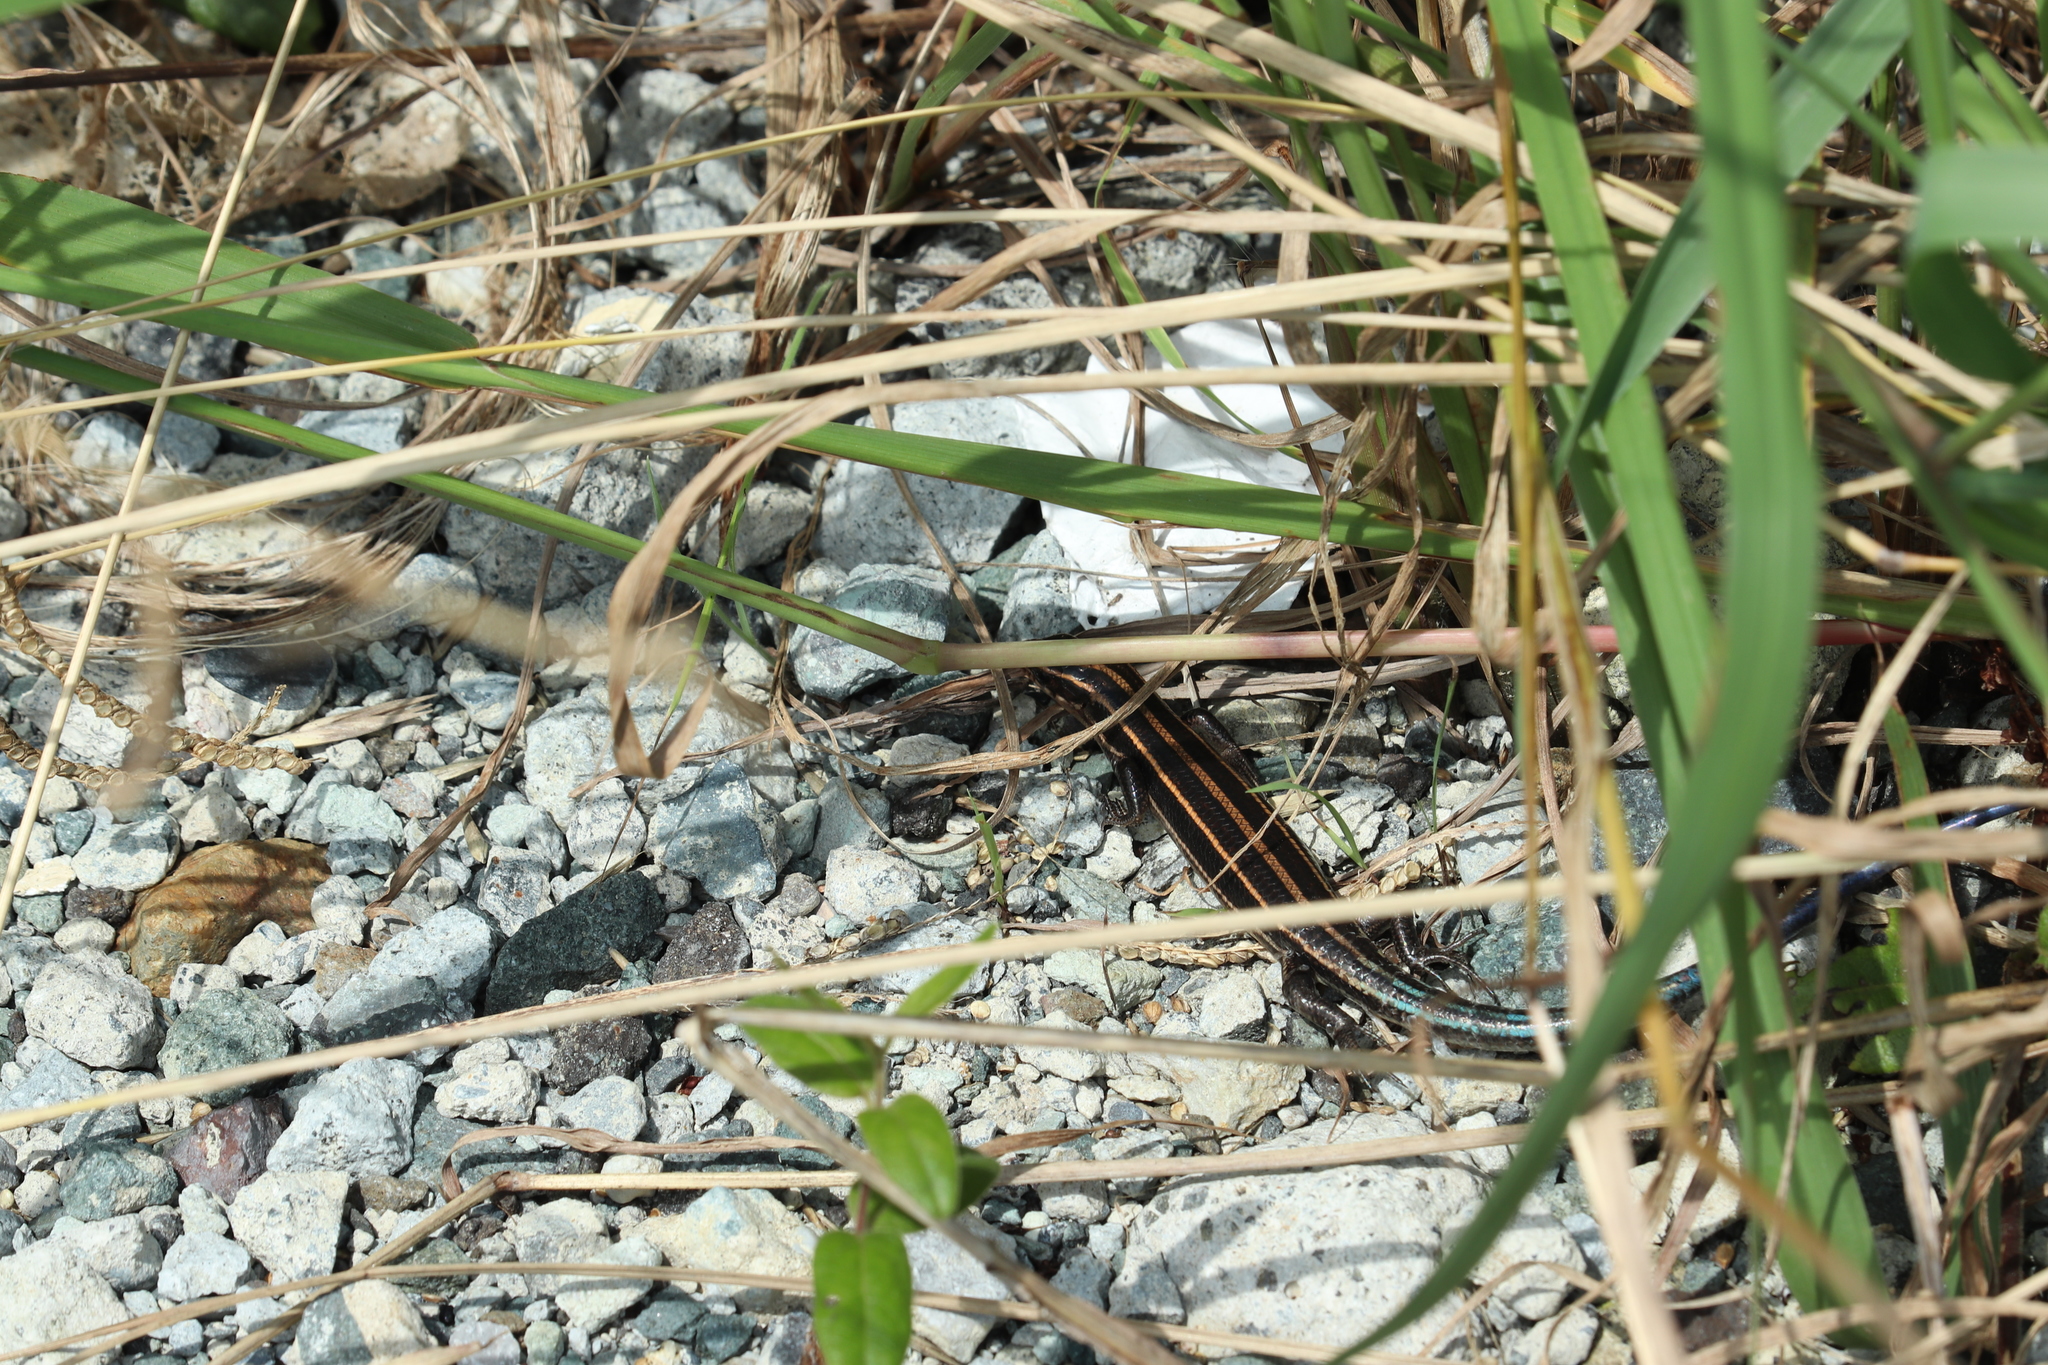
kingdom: Animalia
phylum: Chordata
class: Squamata
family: Scincidae
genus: Plestiodon
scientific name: Plestiodon latiscutatus
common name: Far eastern skink
